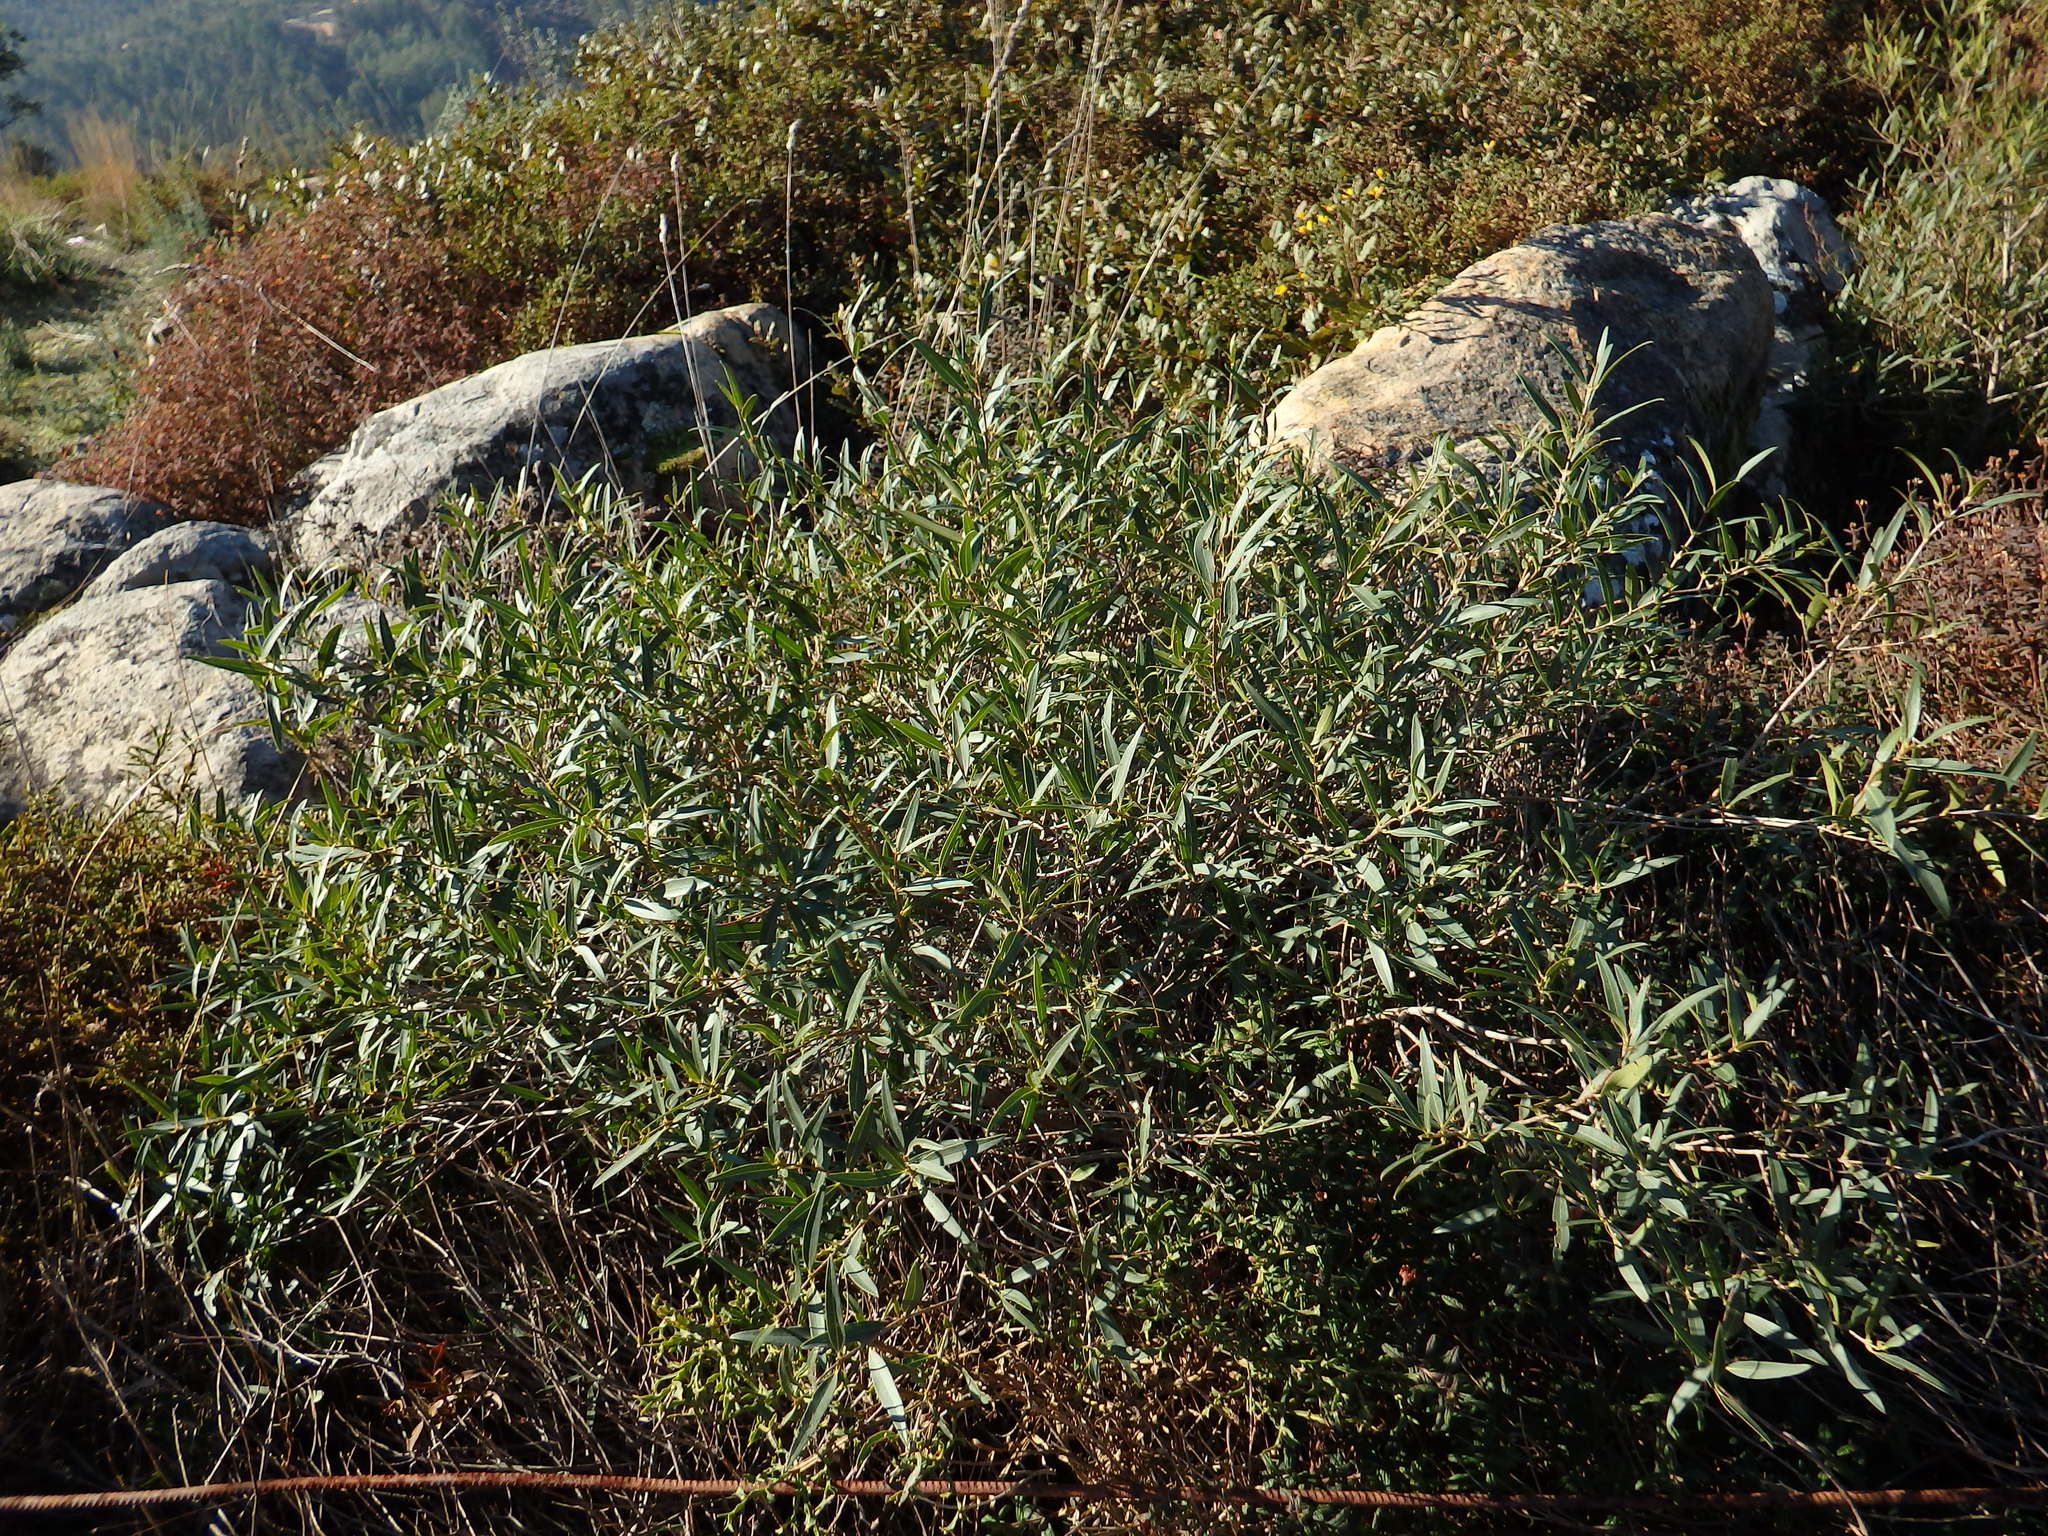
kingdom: Plantae
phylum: Tracheophyta
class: Magnoliopsida
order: Lamiales
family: Oleaceae
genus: Phillyrea
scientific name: Phillyrea angustifolia
